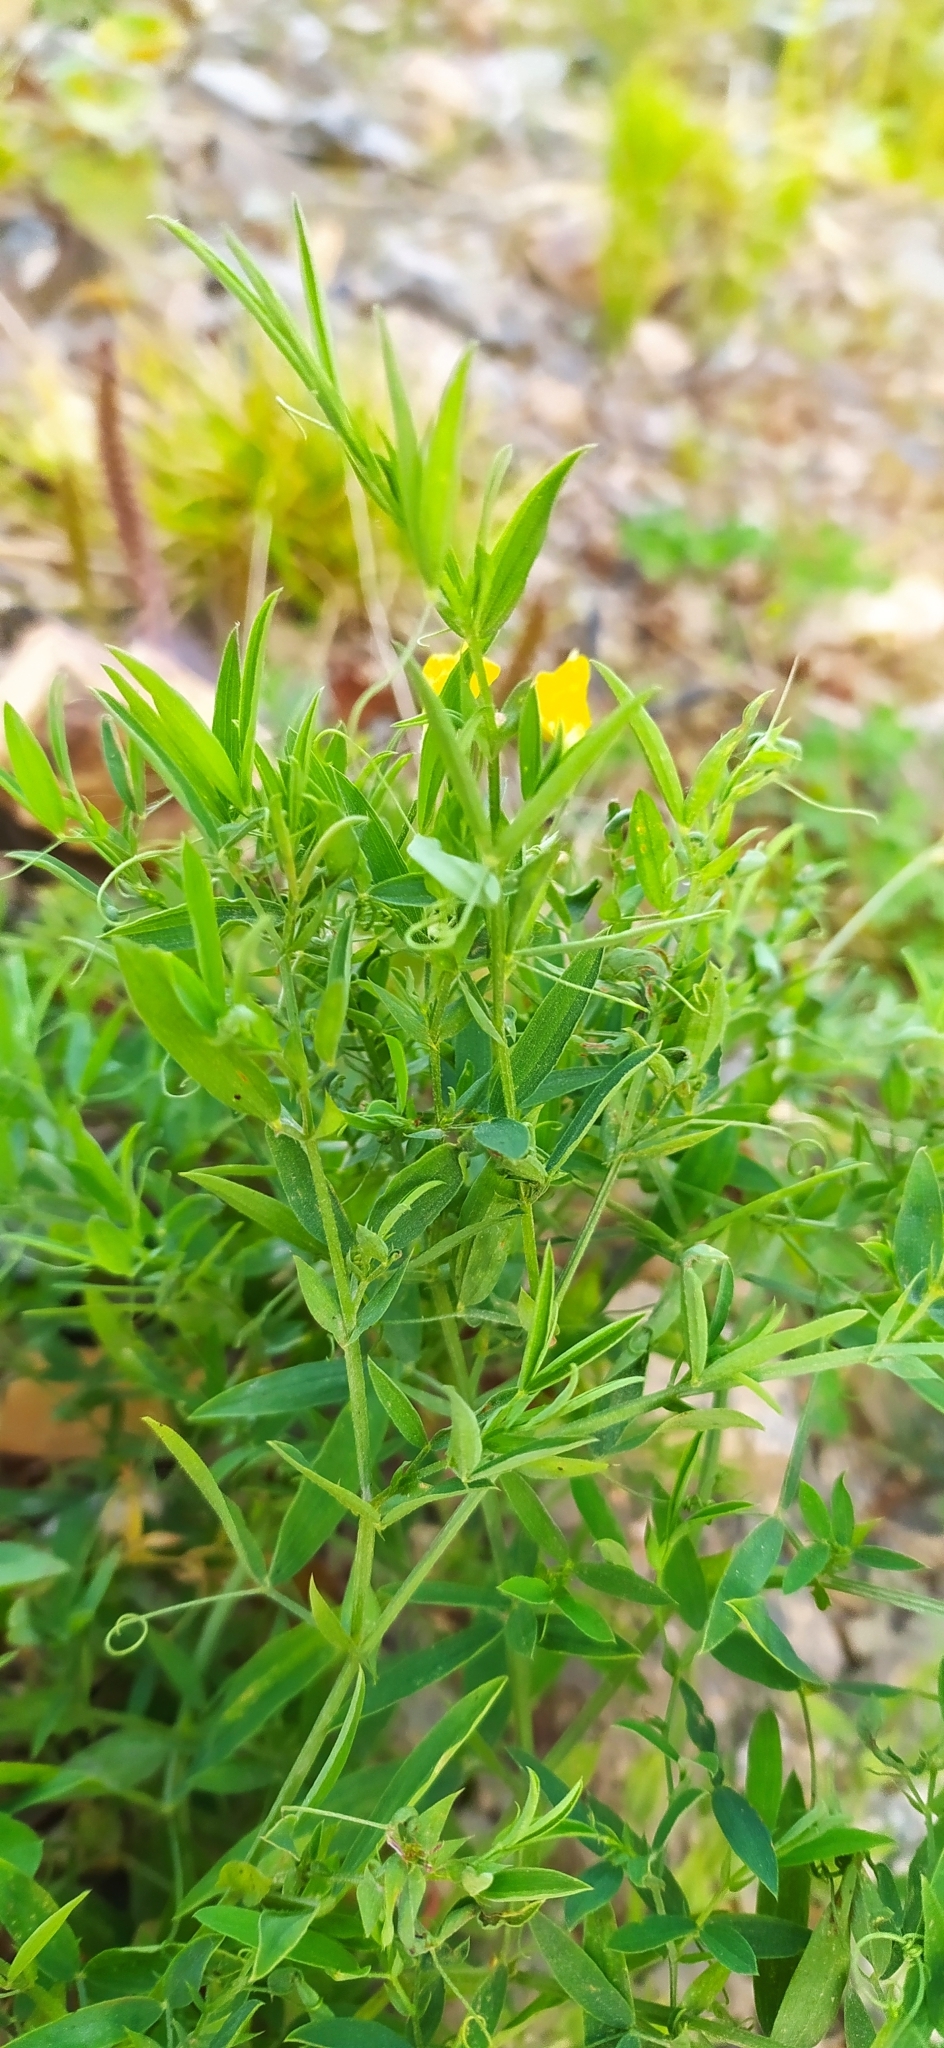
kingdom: Plantae
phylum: Tracheophyta
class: Magnoliopsida
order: Fabales
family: Fabaceae
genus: Lathyrus
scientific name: Lathyrus pratensis
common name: Meadow vetchling
